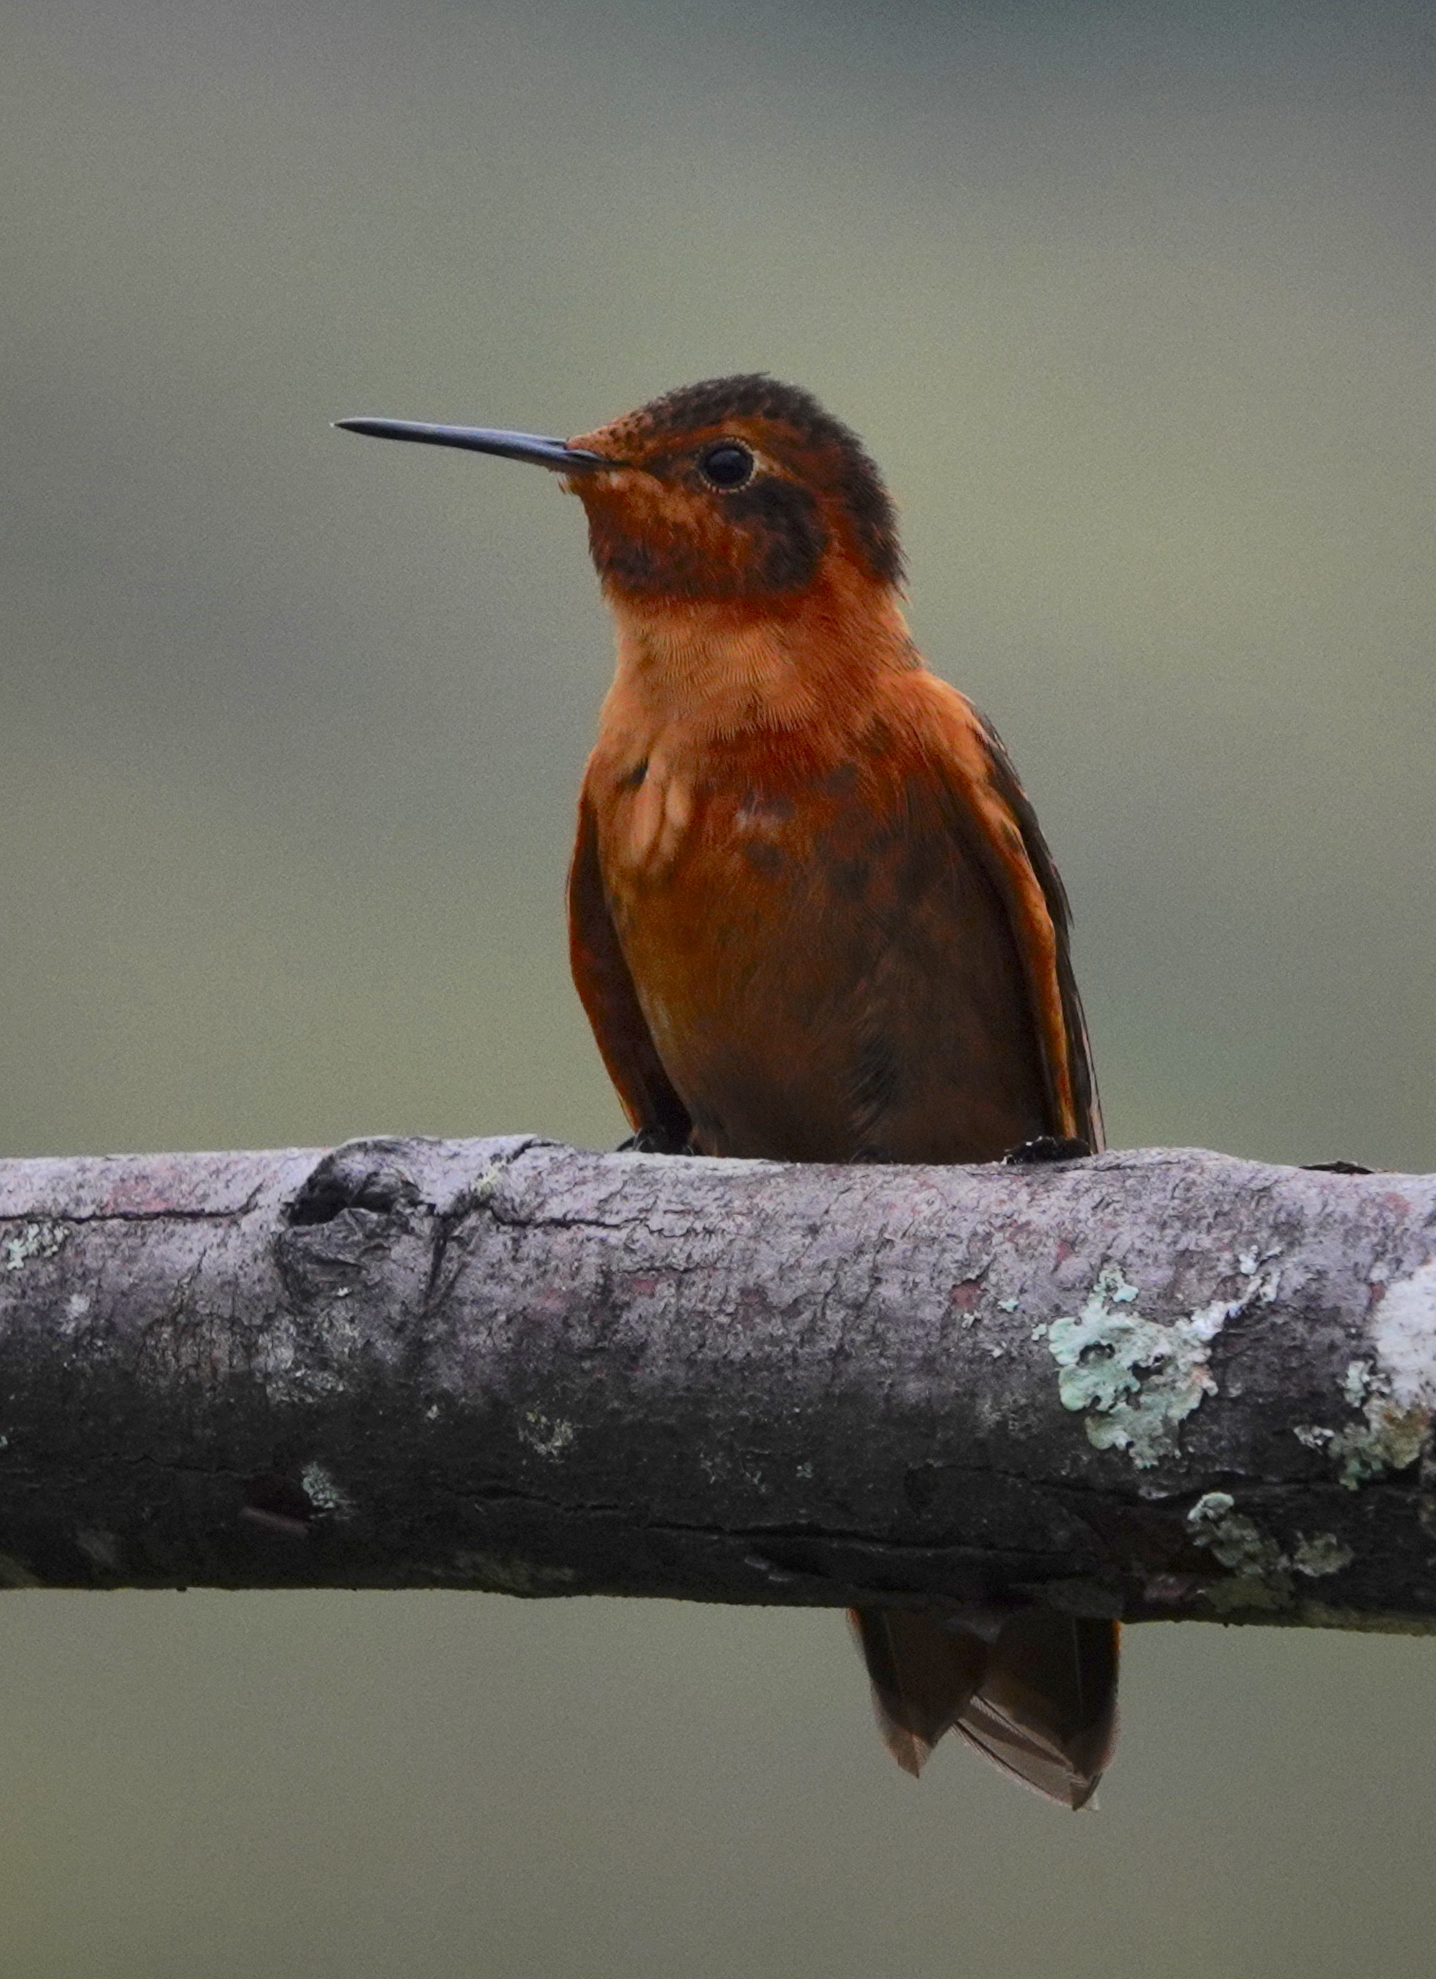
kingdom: Animalia
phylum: Chordata
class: Aves
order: Apodiformes
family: Trochilidae
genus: Aglaeactis
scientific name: Aglaeactis cupripennis
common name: Shining sunbeam
